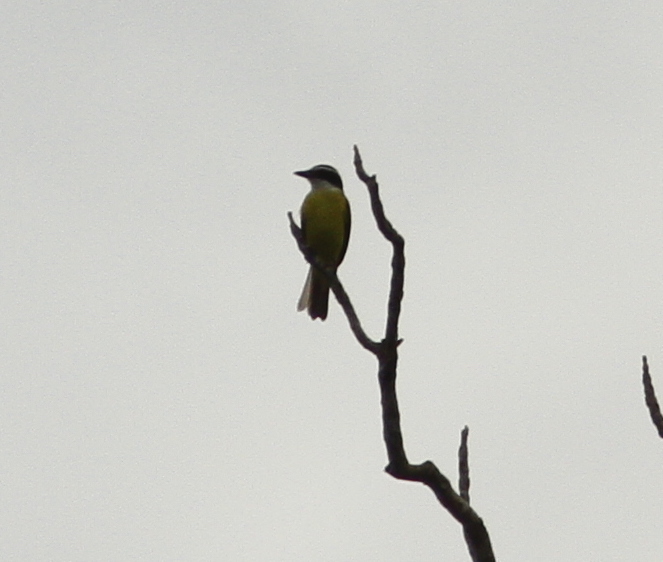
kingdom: Animalia
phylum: Chordata
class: Aves
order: Passeriformes
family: Tyrannidae
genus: Pitangus
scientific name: Pitangus lictor
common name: Lesser kiskadee
